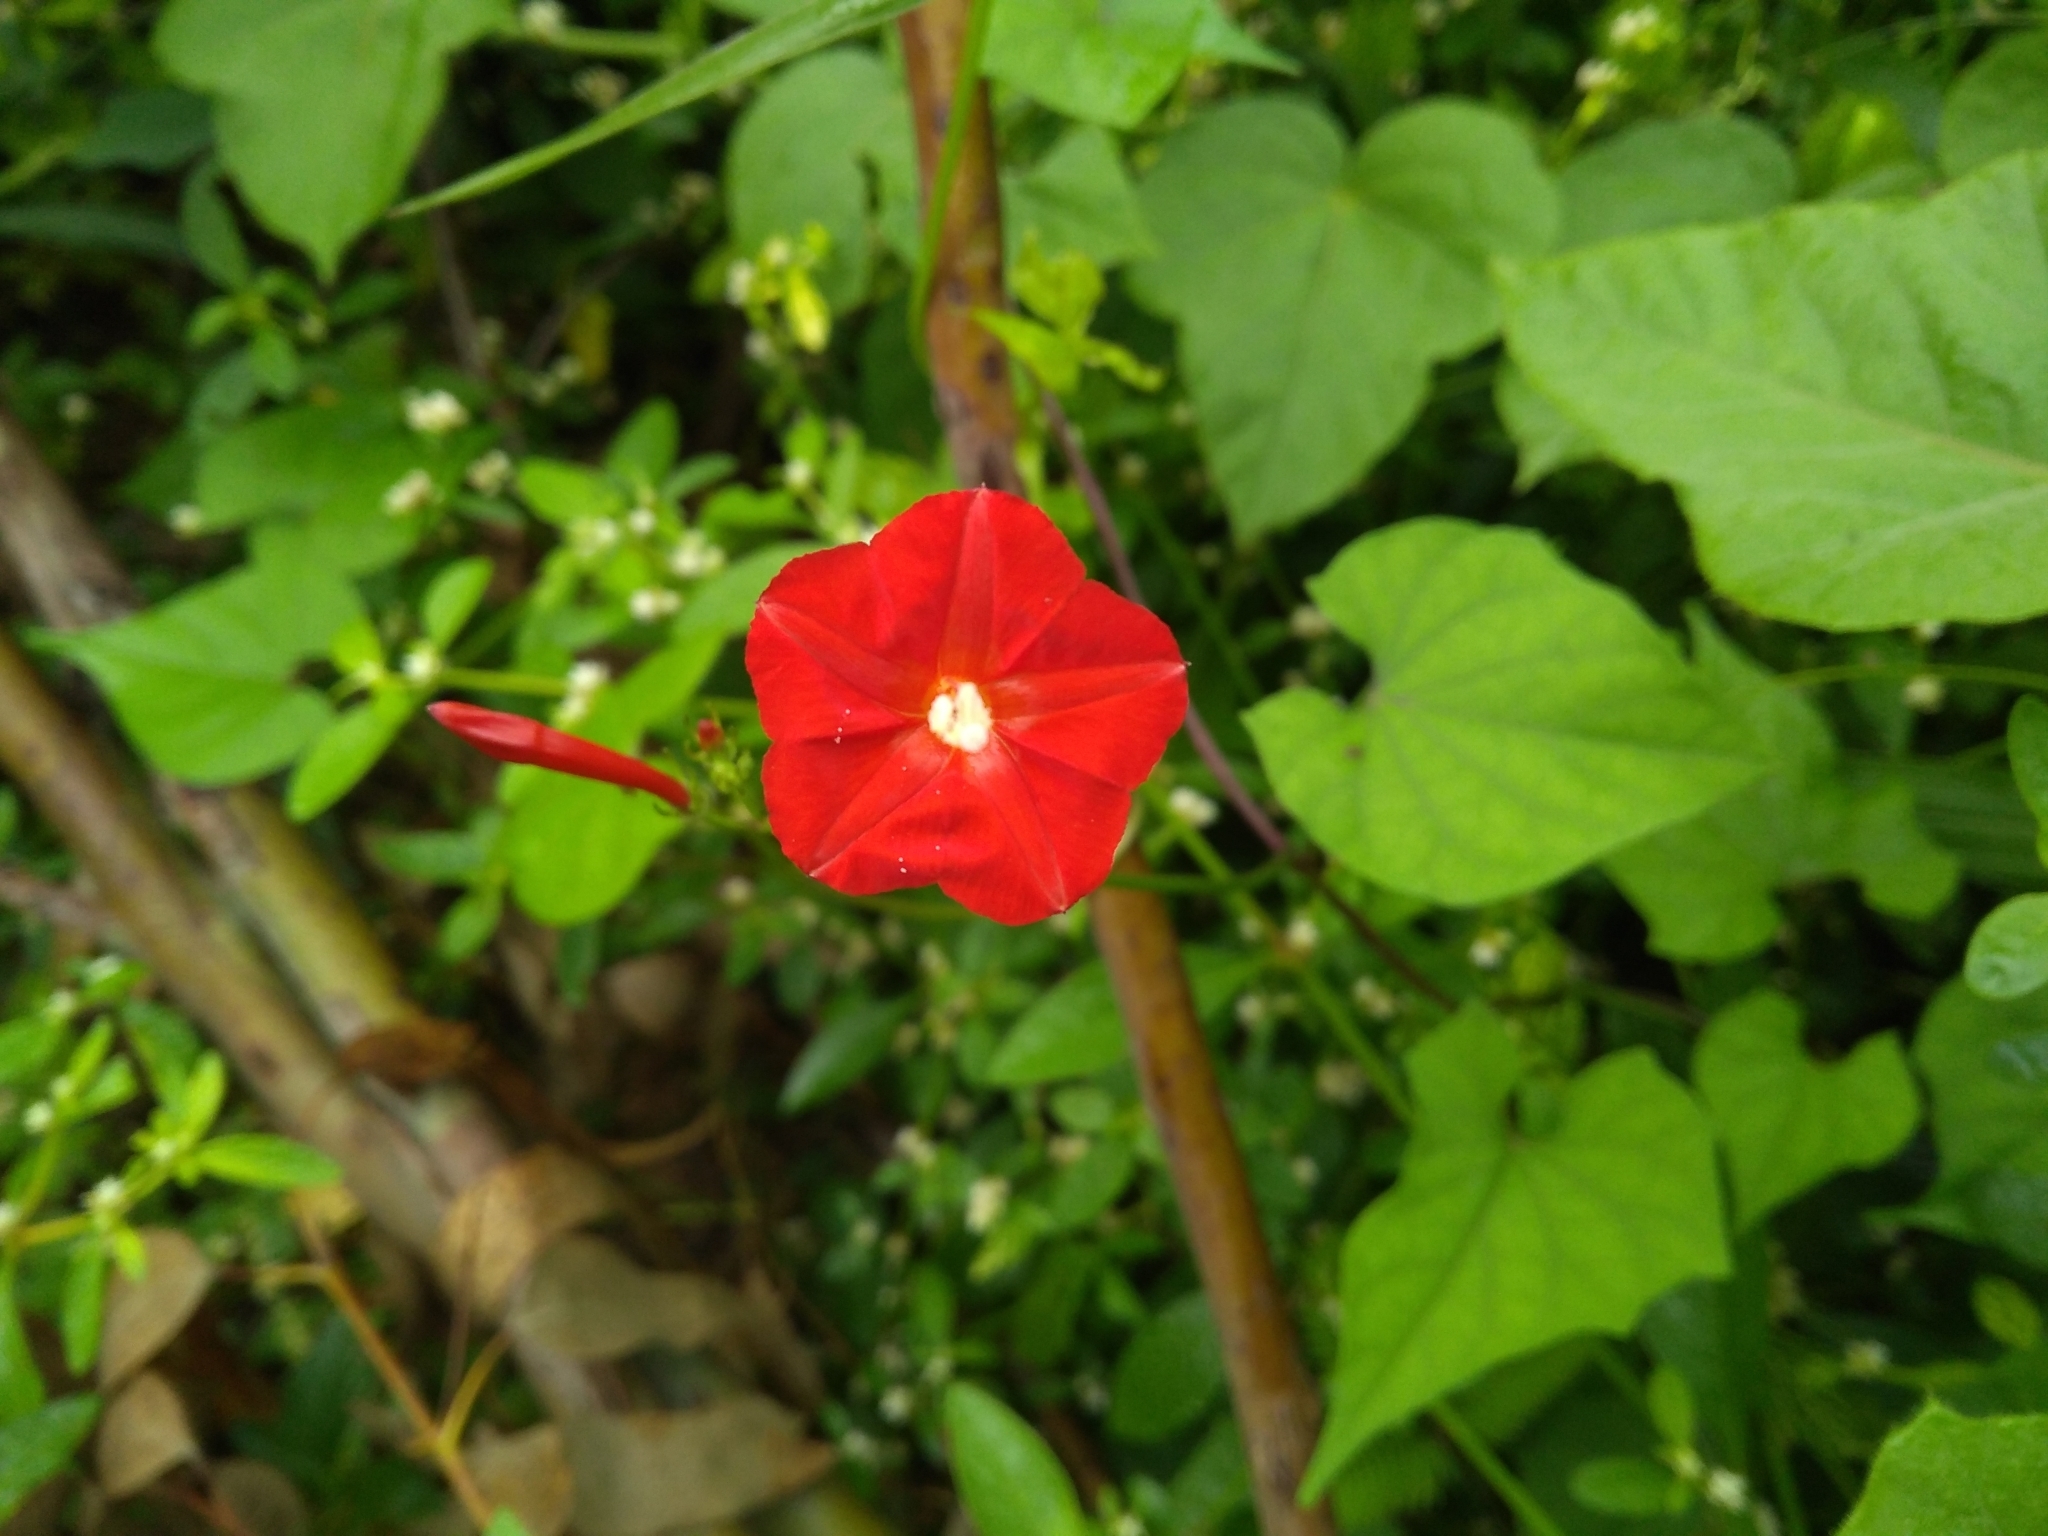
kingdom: Plantae
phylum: Tracheophyta
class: Magnoliopsida
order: Solanales
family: Convolvulaceae
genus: Ipomoea
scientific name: Ipomoea coccinea
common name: Red morning-glory
